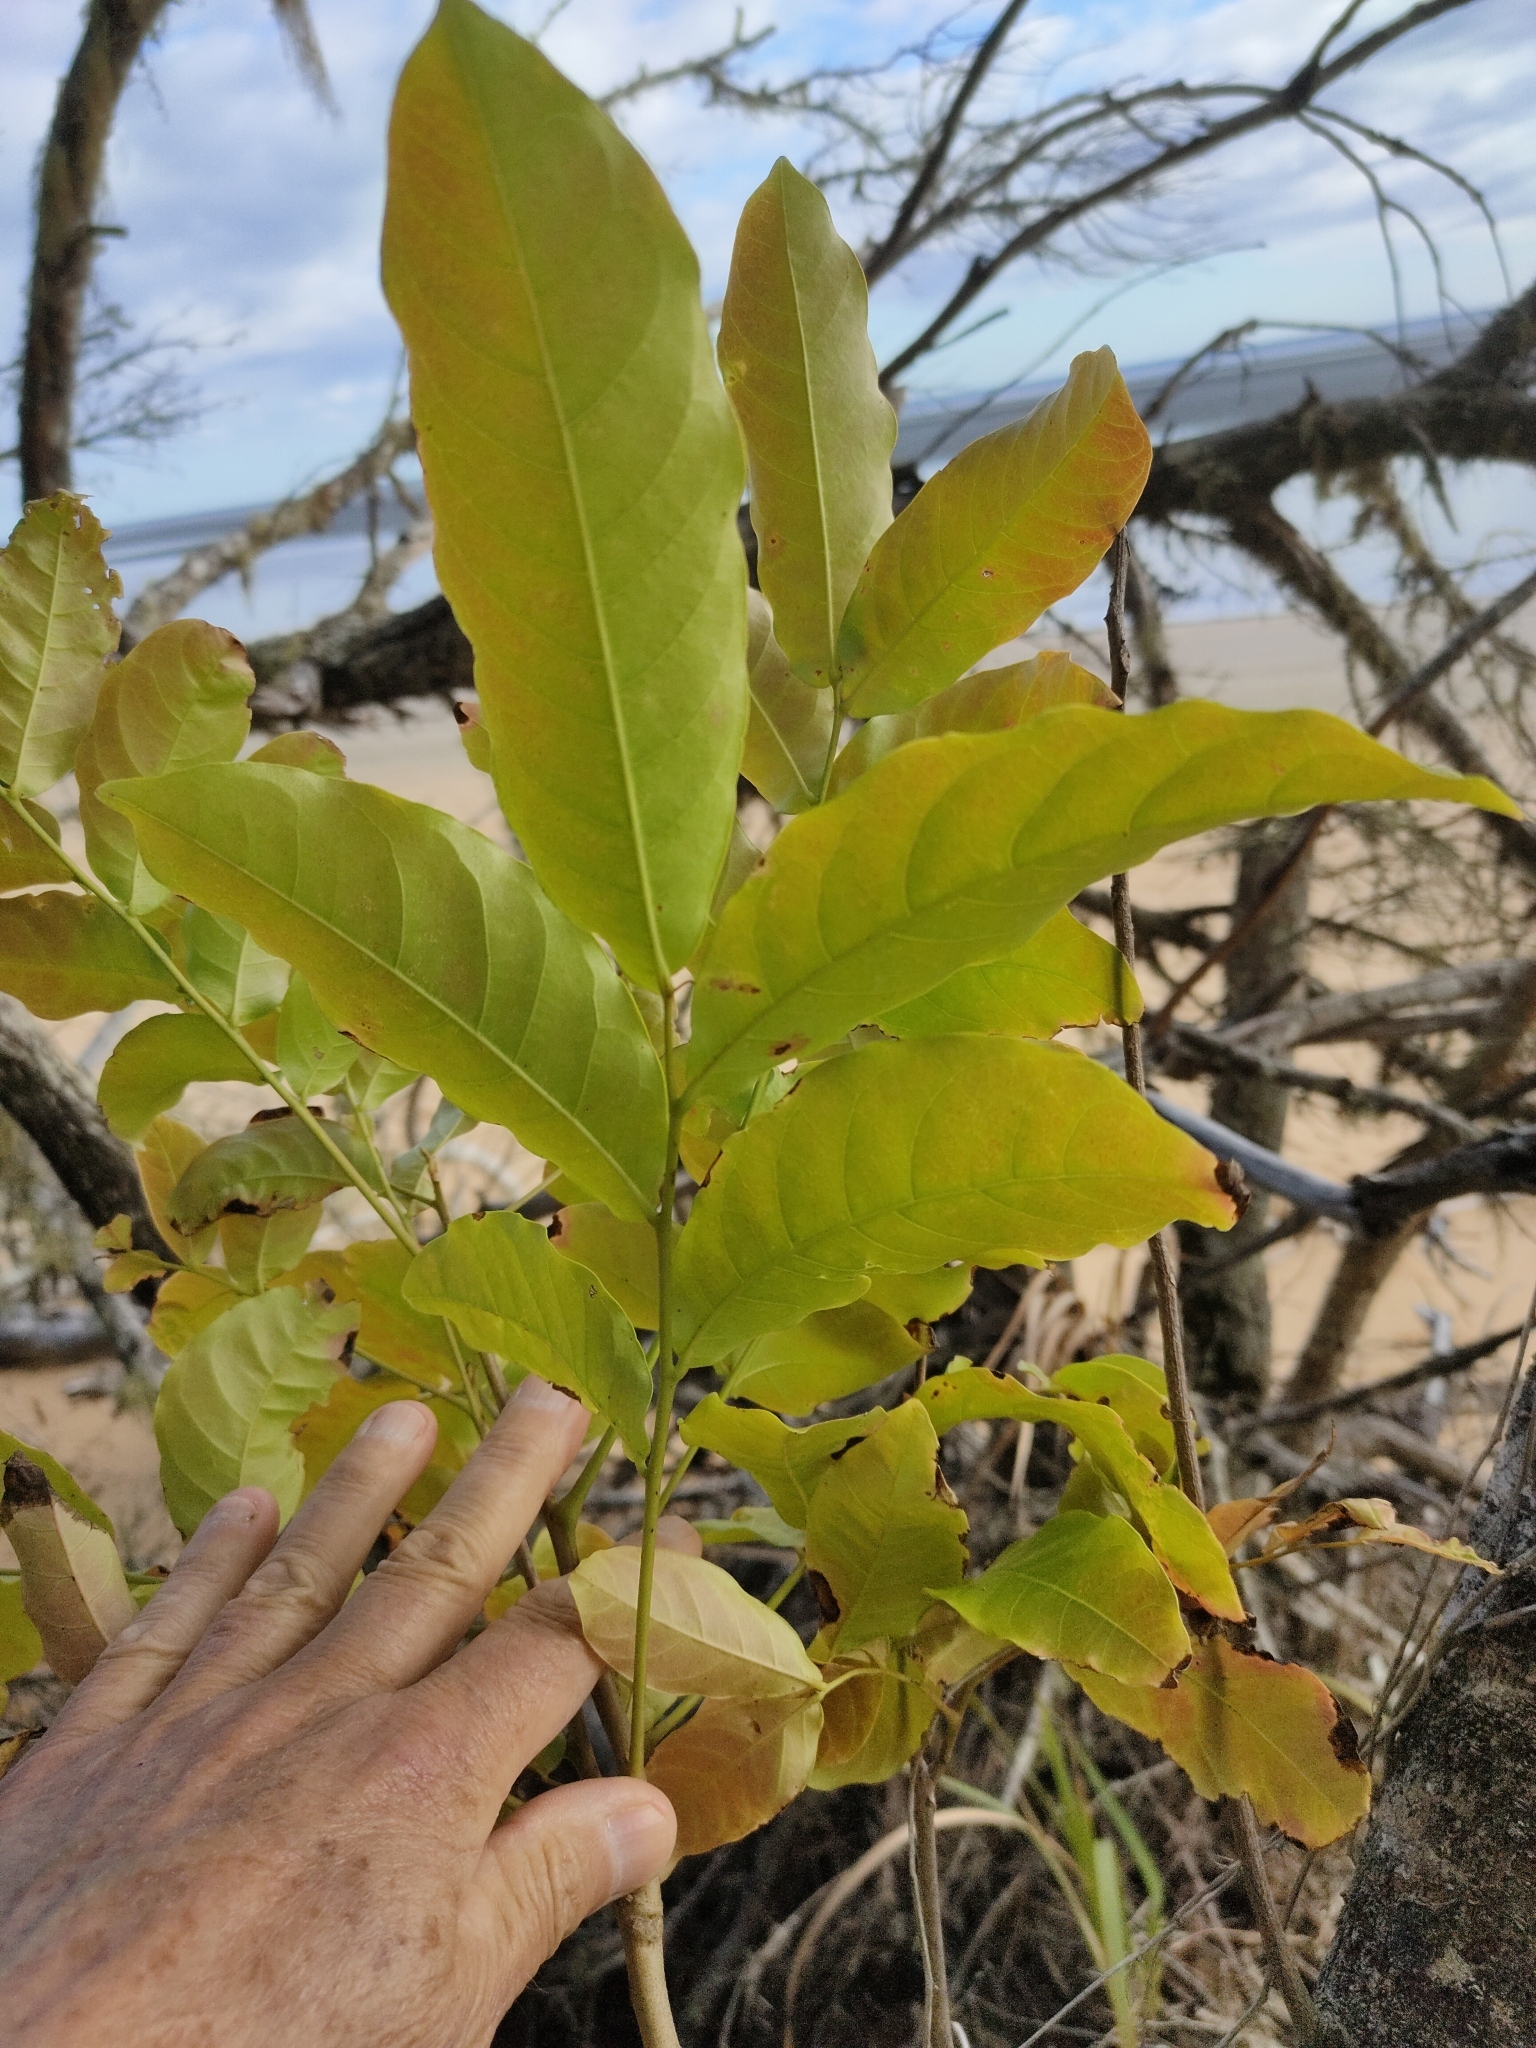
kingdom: Plantae
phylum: Tracheophyta
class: Magnoliopsida
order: Sapindales
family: Sapindaceae
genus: Harpullia
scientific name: Harpullia pendula
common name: Moreton bay tulipwood
